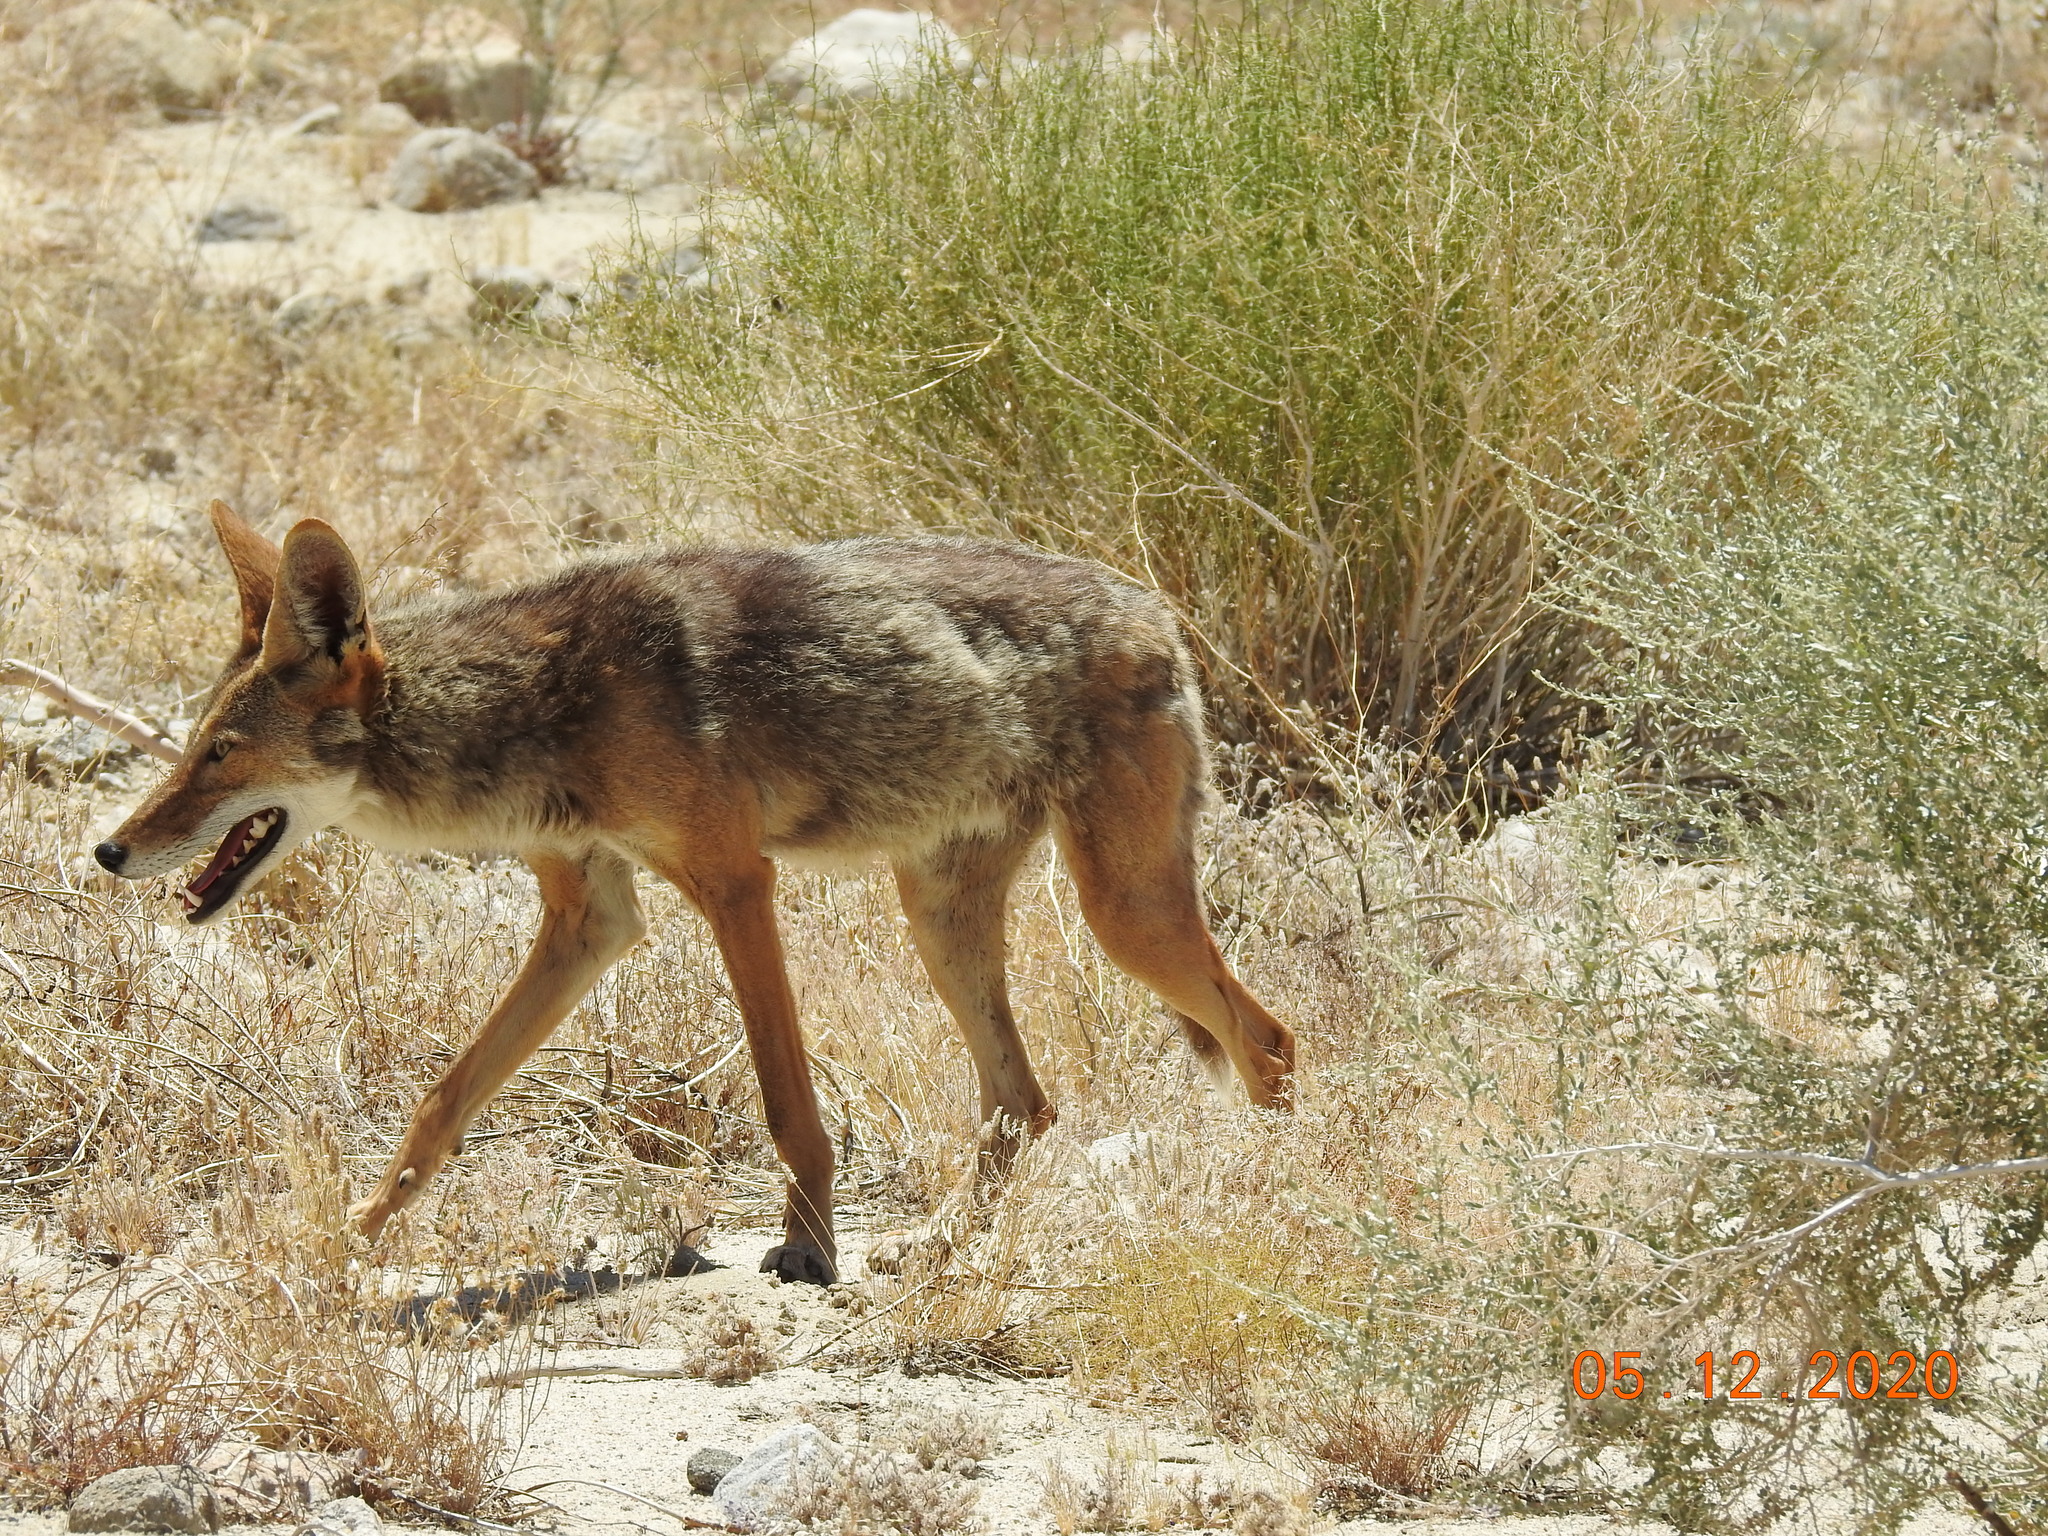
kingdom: Animalia
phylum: Chordata
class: Mammalia
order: Carnivora
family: Canidae
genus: Canis
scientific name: Canis latrans
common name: Coyote
